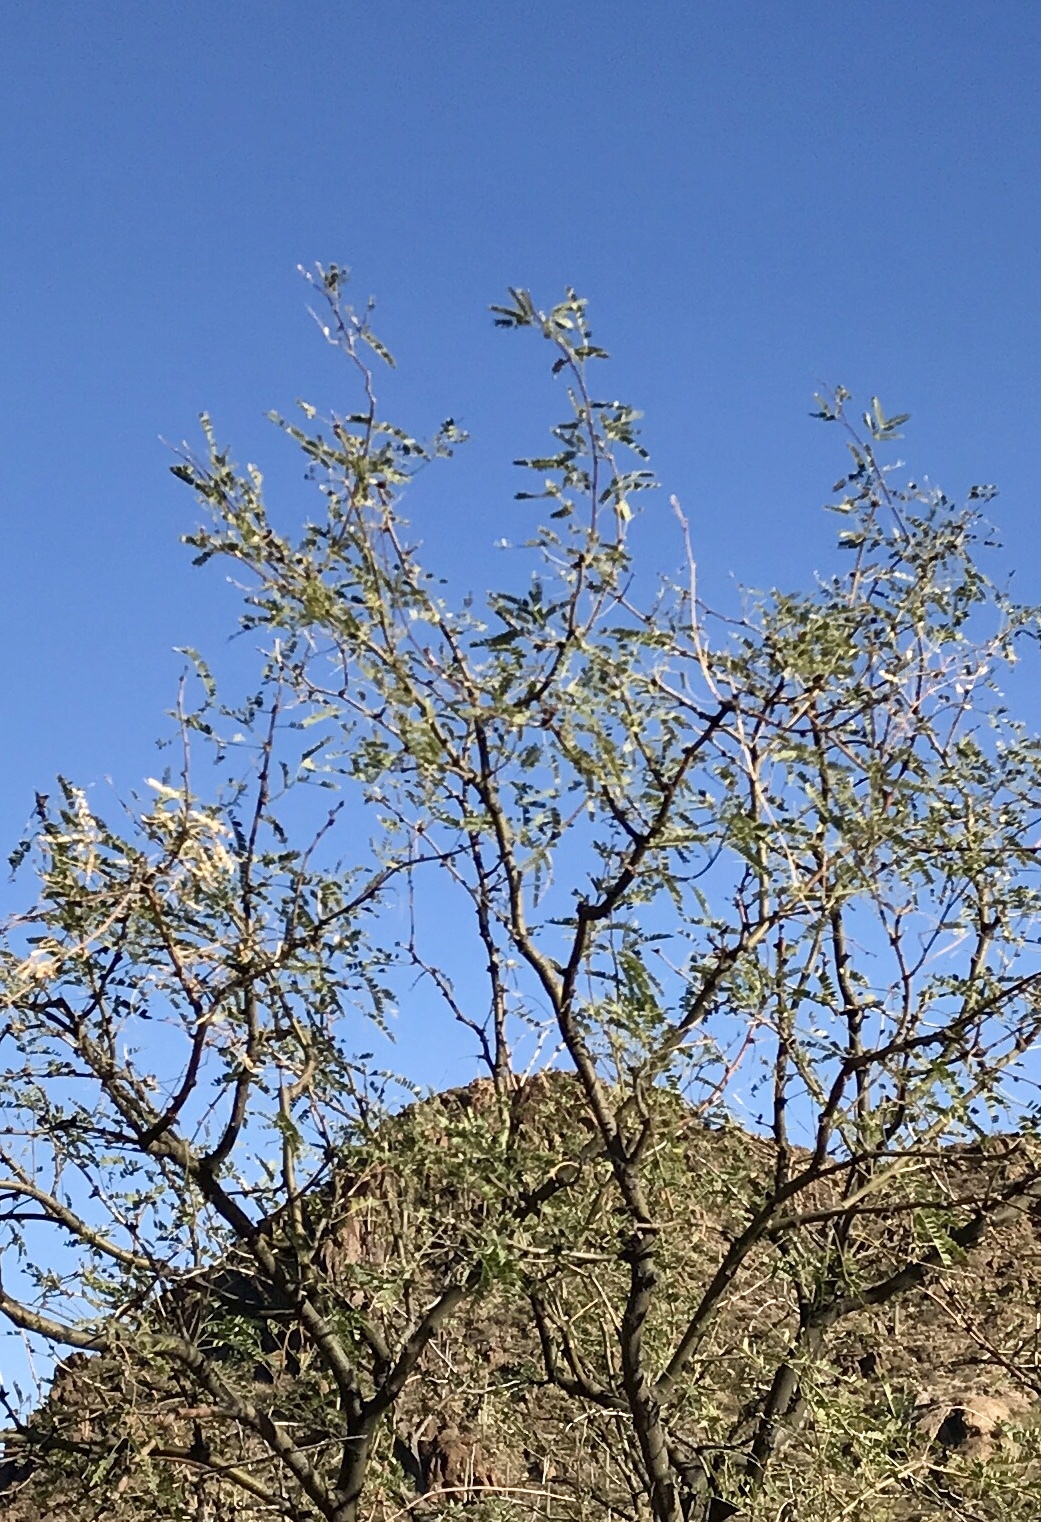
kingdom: Plantae
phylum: Tracheophyta
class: Magnoliopsida
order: Fabales
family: Fabaceae
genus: Prosopis
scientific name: Prosopis velutina
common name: Velvet mesquite
